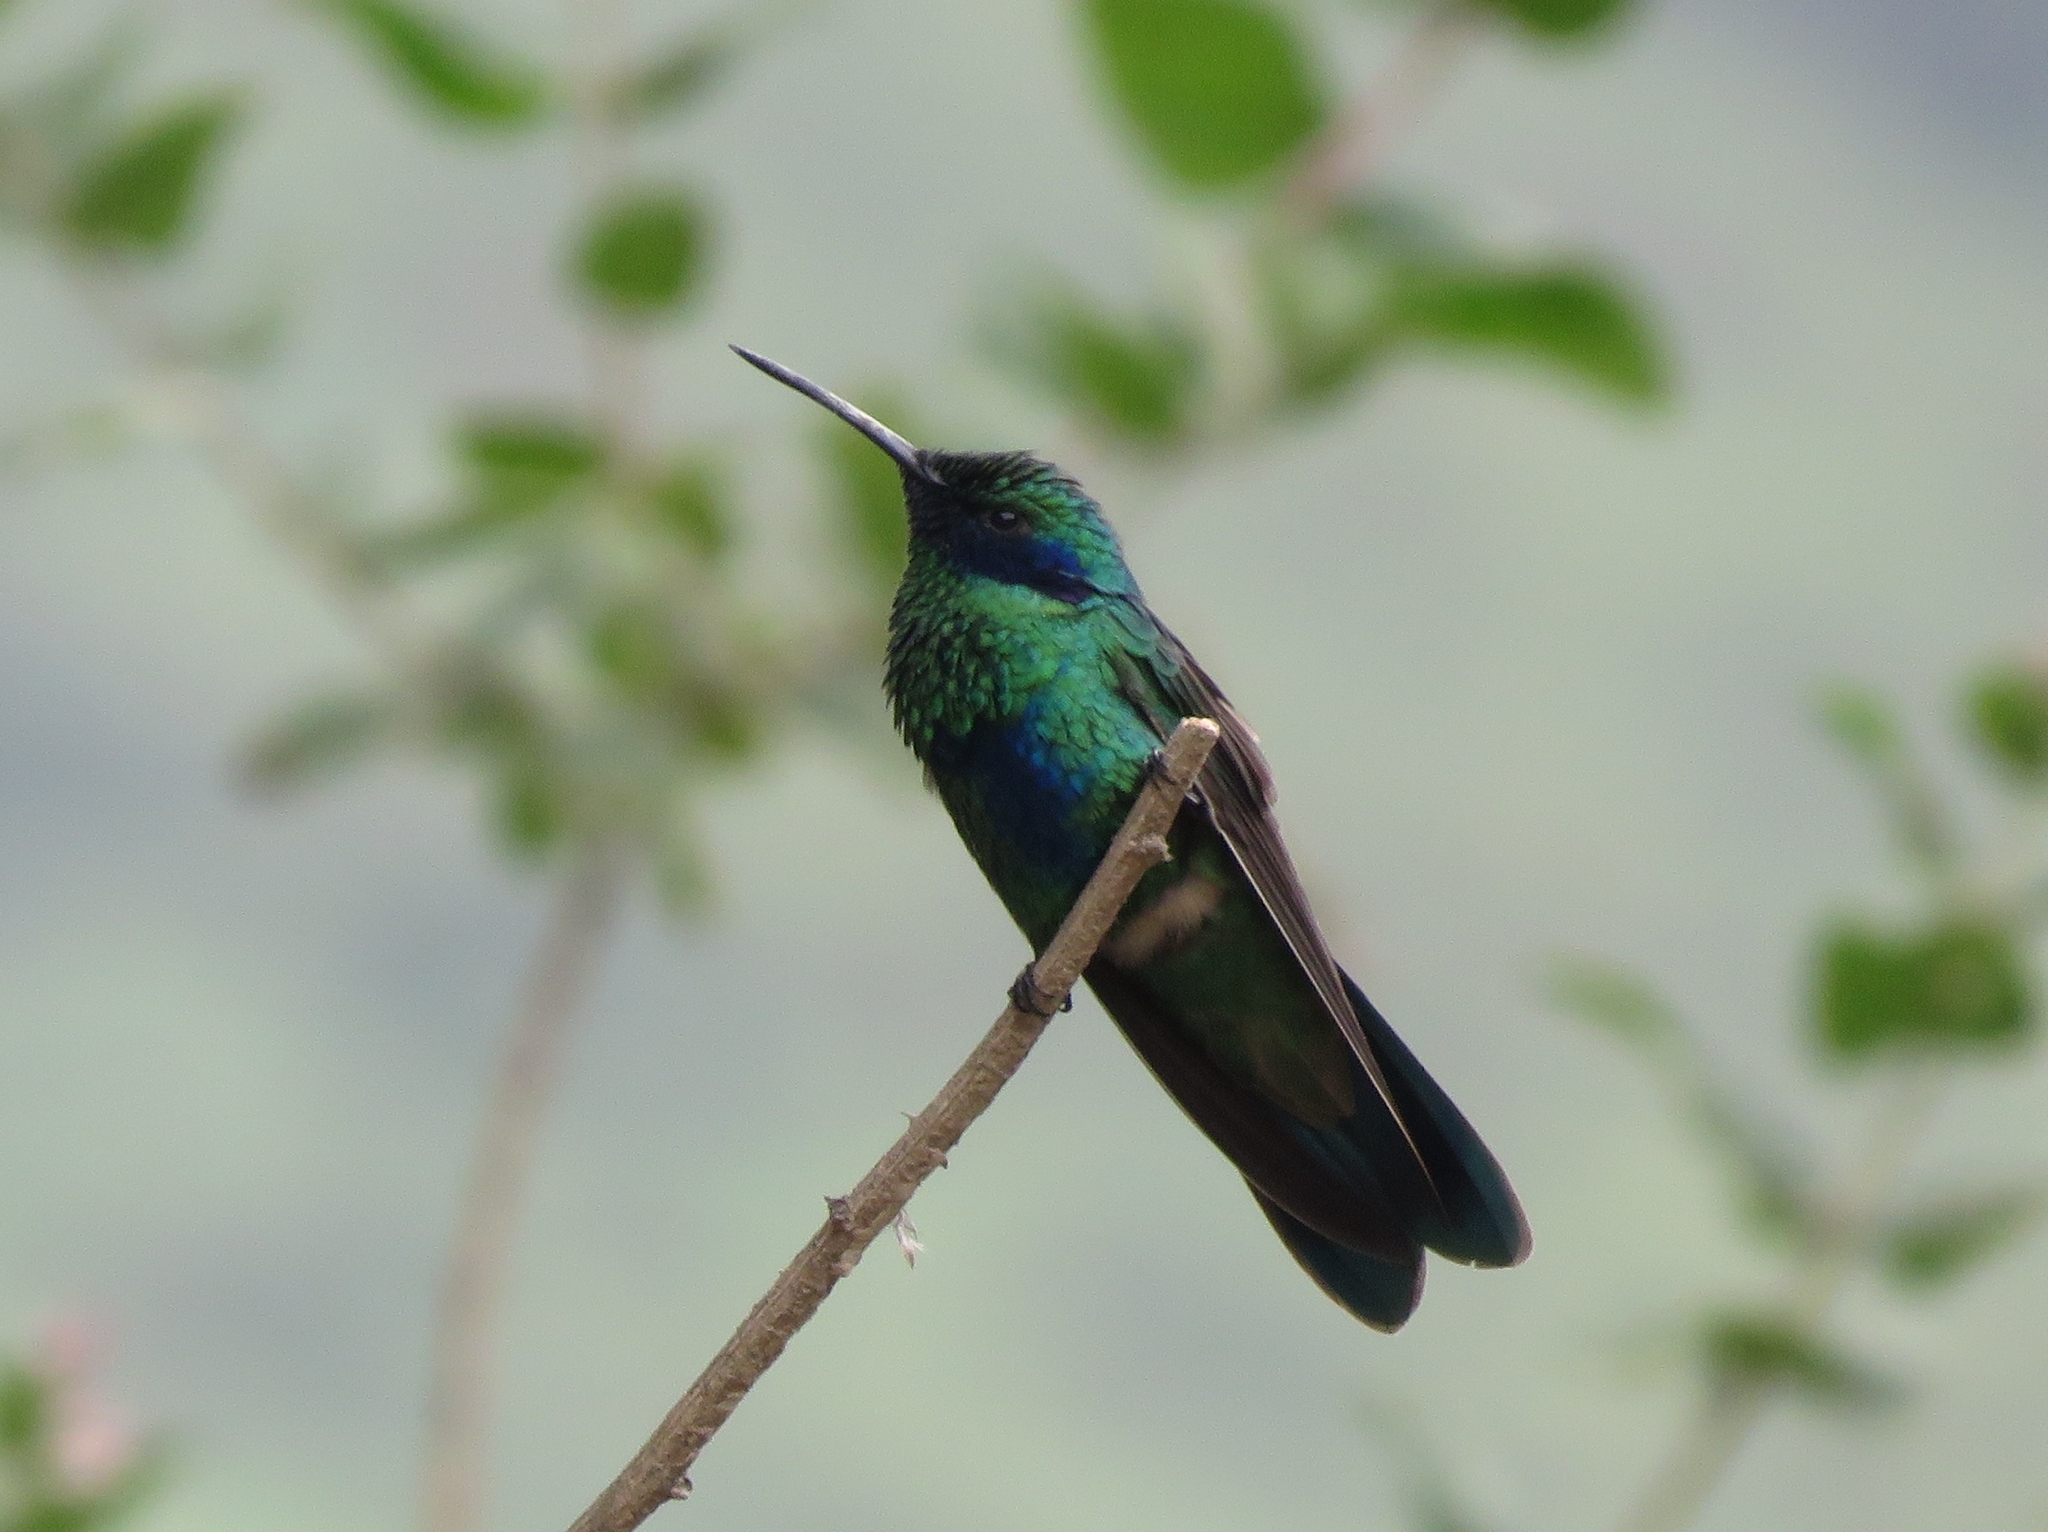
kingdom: Animalia
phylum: Chordata
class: Aves
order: Apodiformes
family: Trochilidae
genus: Colibri
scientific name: Colibri coruscans
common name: Sparkling violetear
